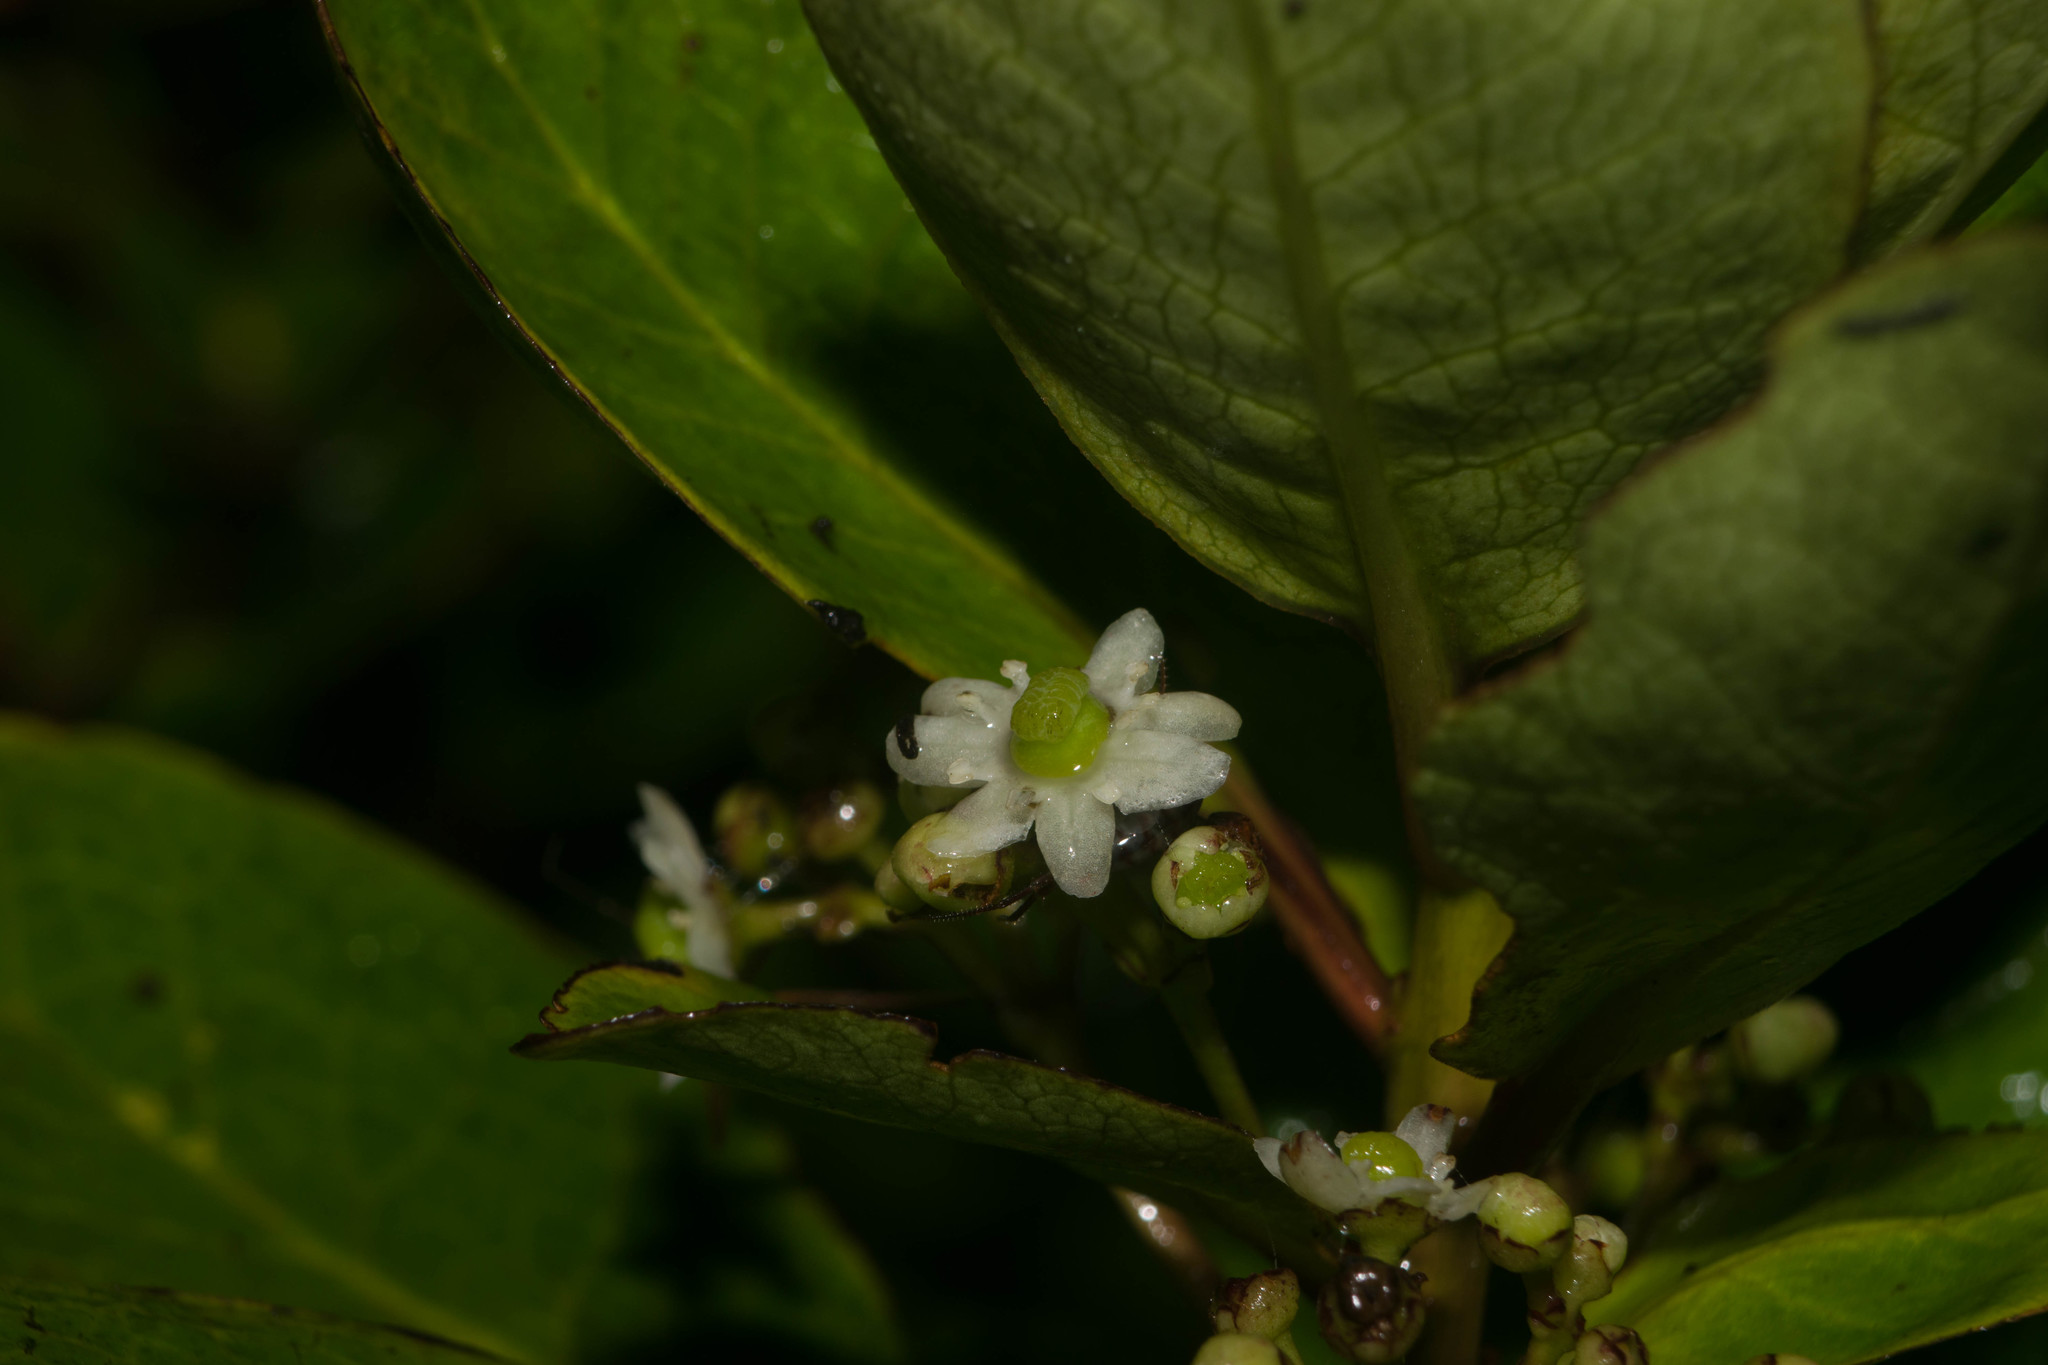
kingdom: Plantae
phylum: Tracheophyta
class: Magnoliopsida
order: Aquifoliales
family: Aquifoliaceae
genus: Ilex
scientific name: Ilex anomala
